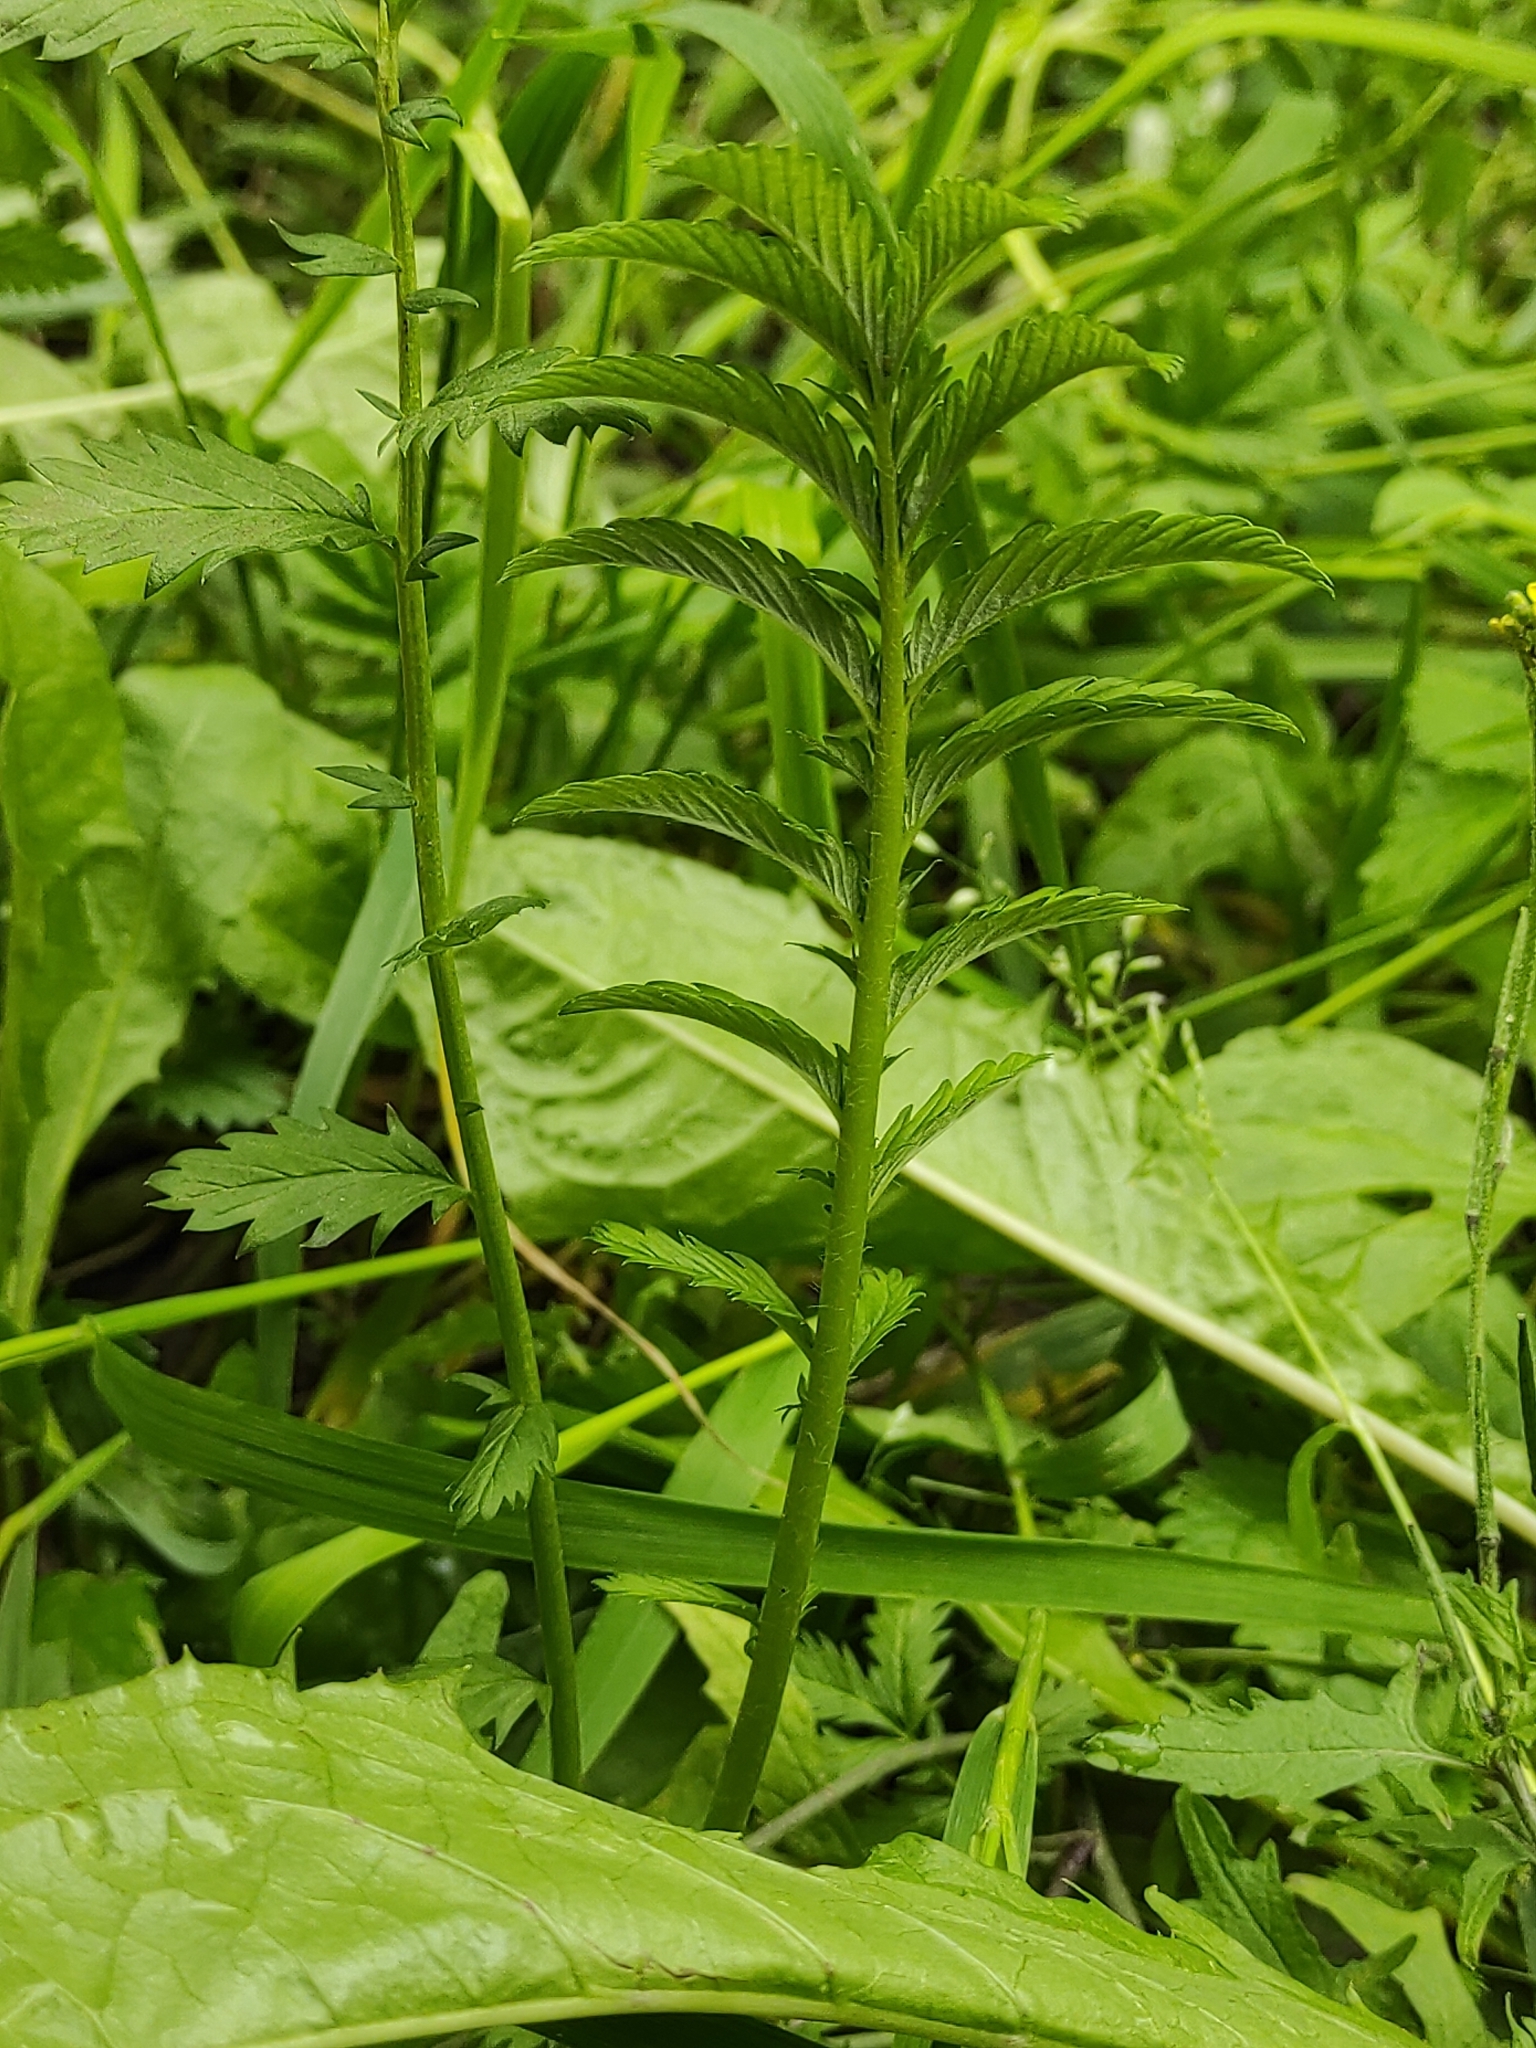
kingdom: Plantae
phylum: Tracheophyta
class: Magnoliopsida
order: Rosales
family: Rosaceae
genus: Argentina
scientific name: Argentina anserina
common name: Common silverweed
